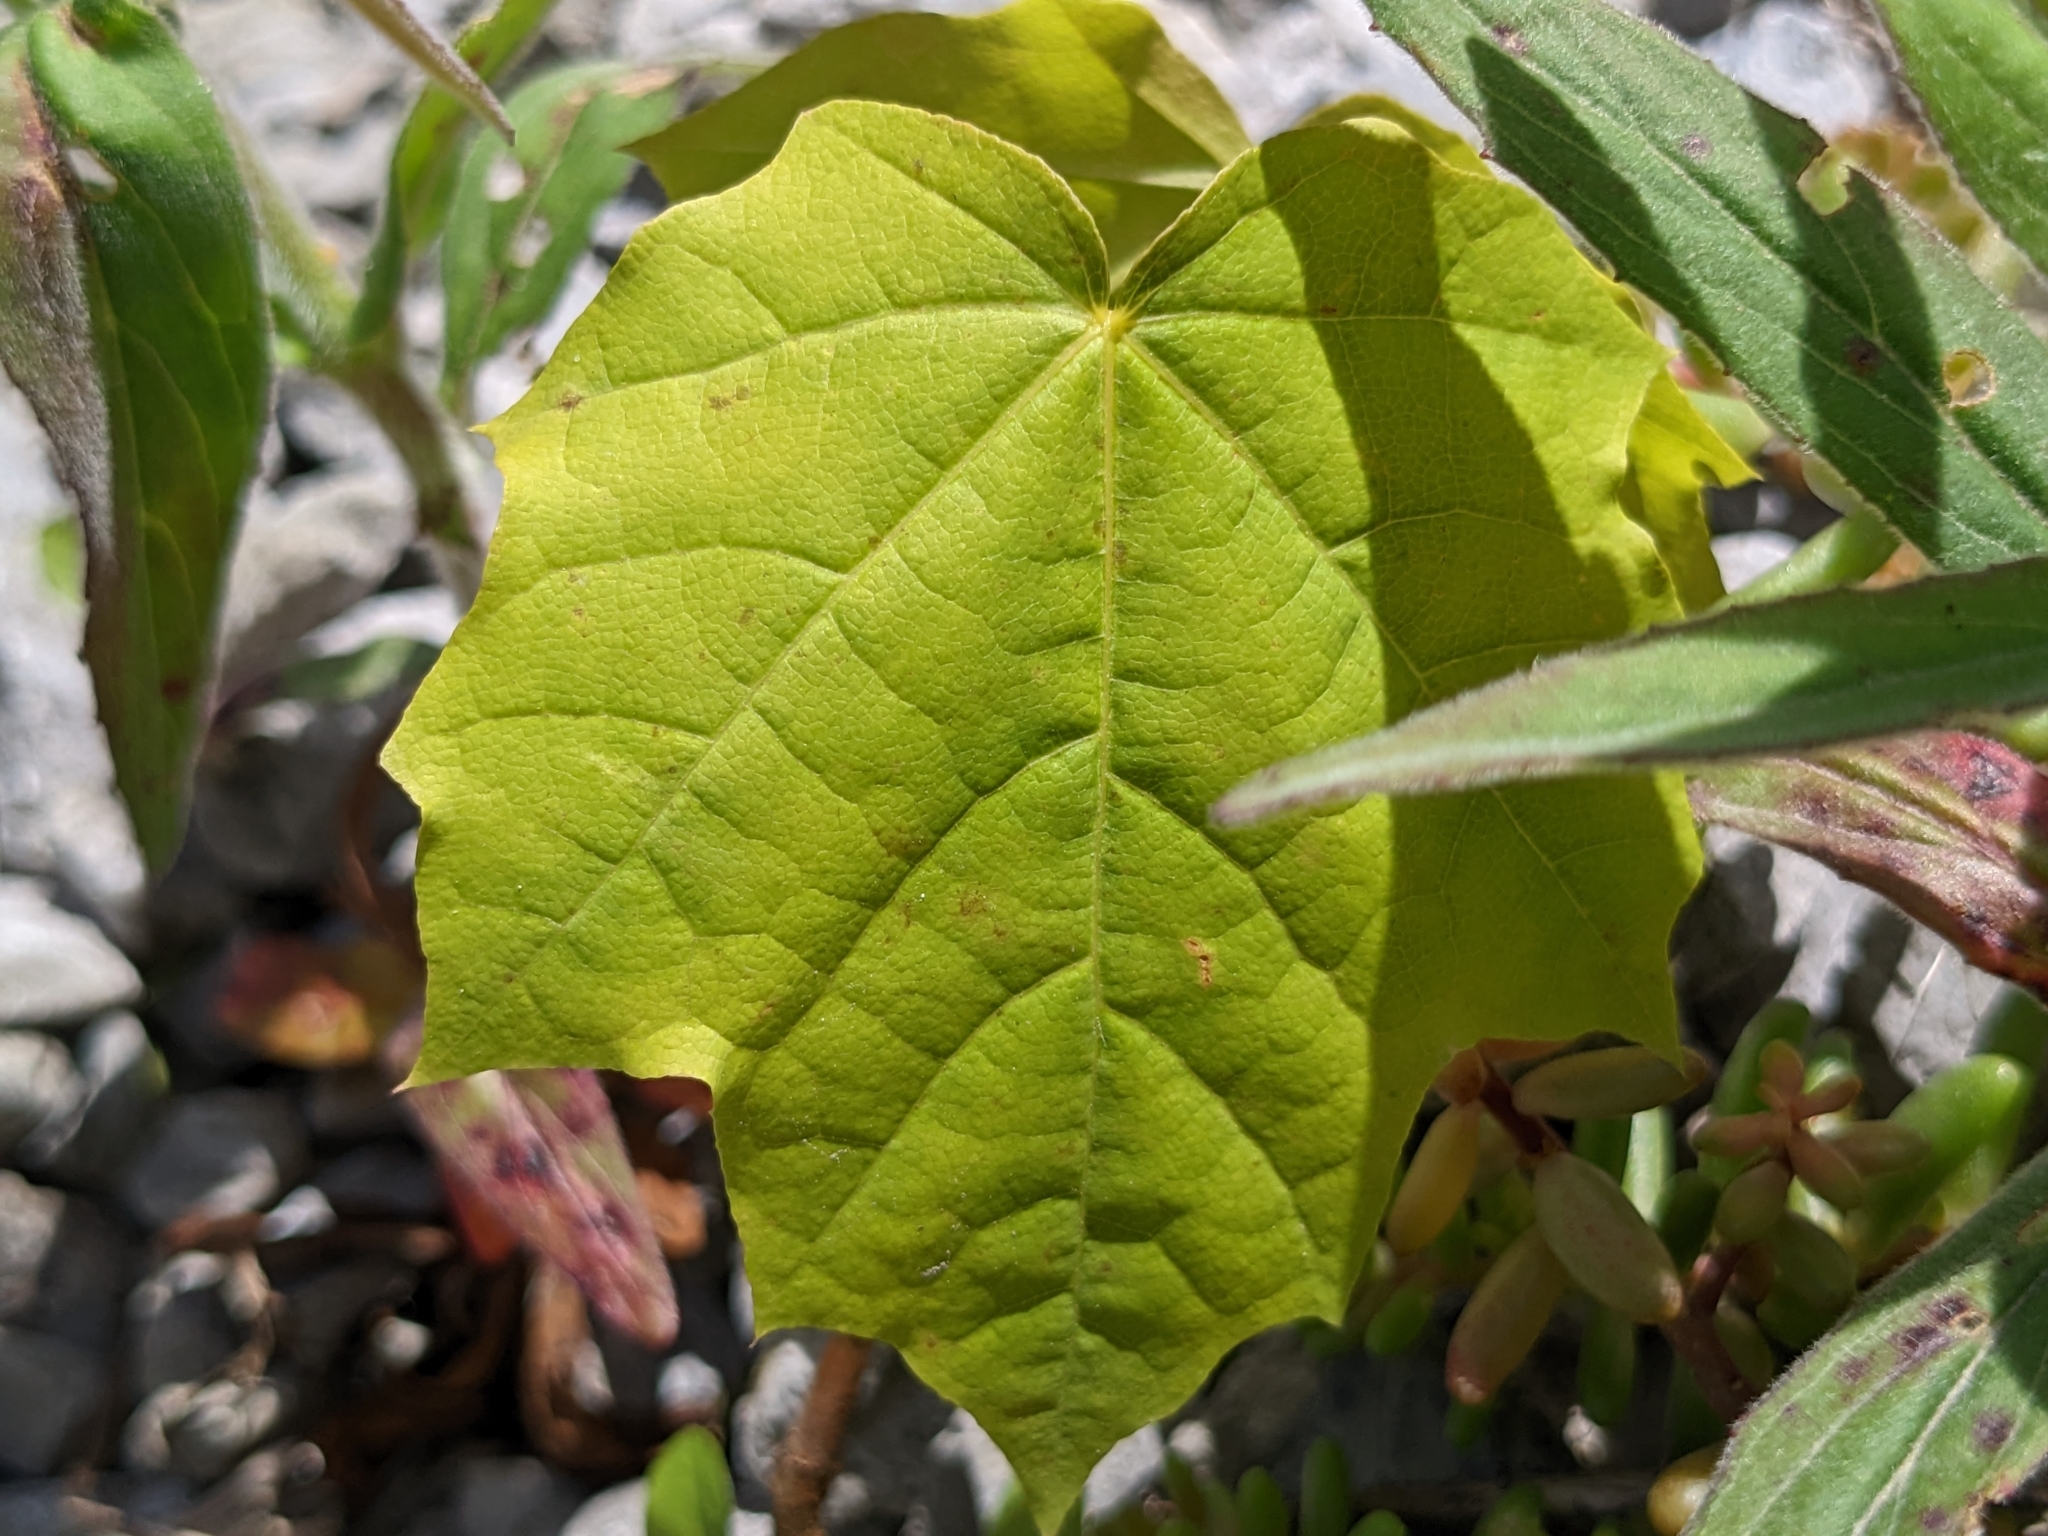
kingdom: Plantae
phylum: Tracheophyta
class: Magnoliopsida
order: Sapindales
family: Sapindaceae
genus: Acer
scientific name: Acer platanoides
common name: Norway maple
